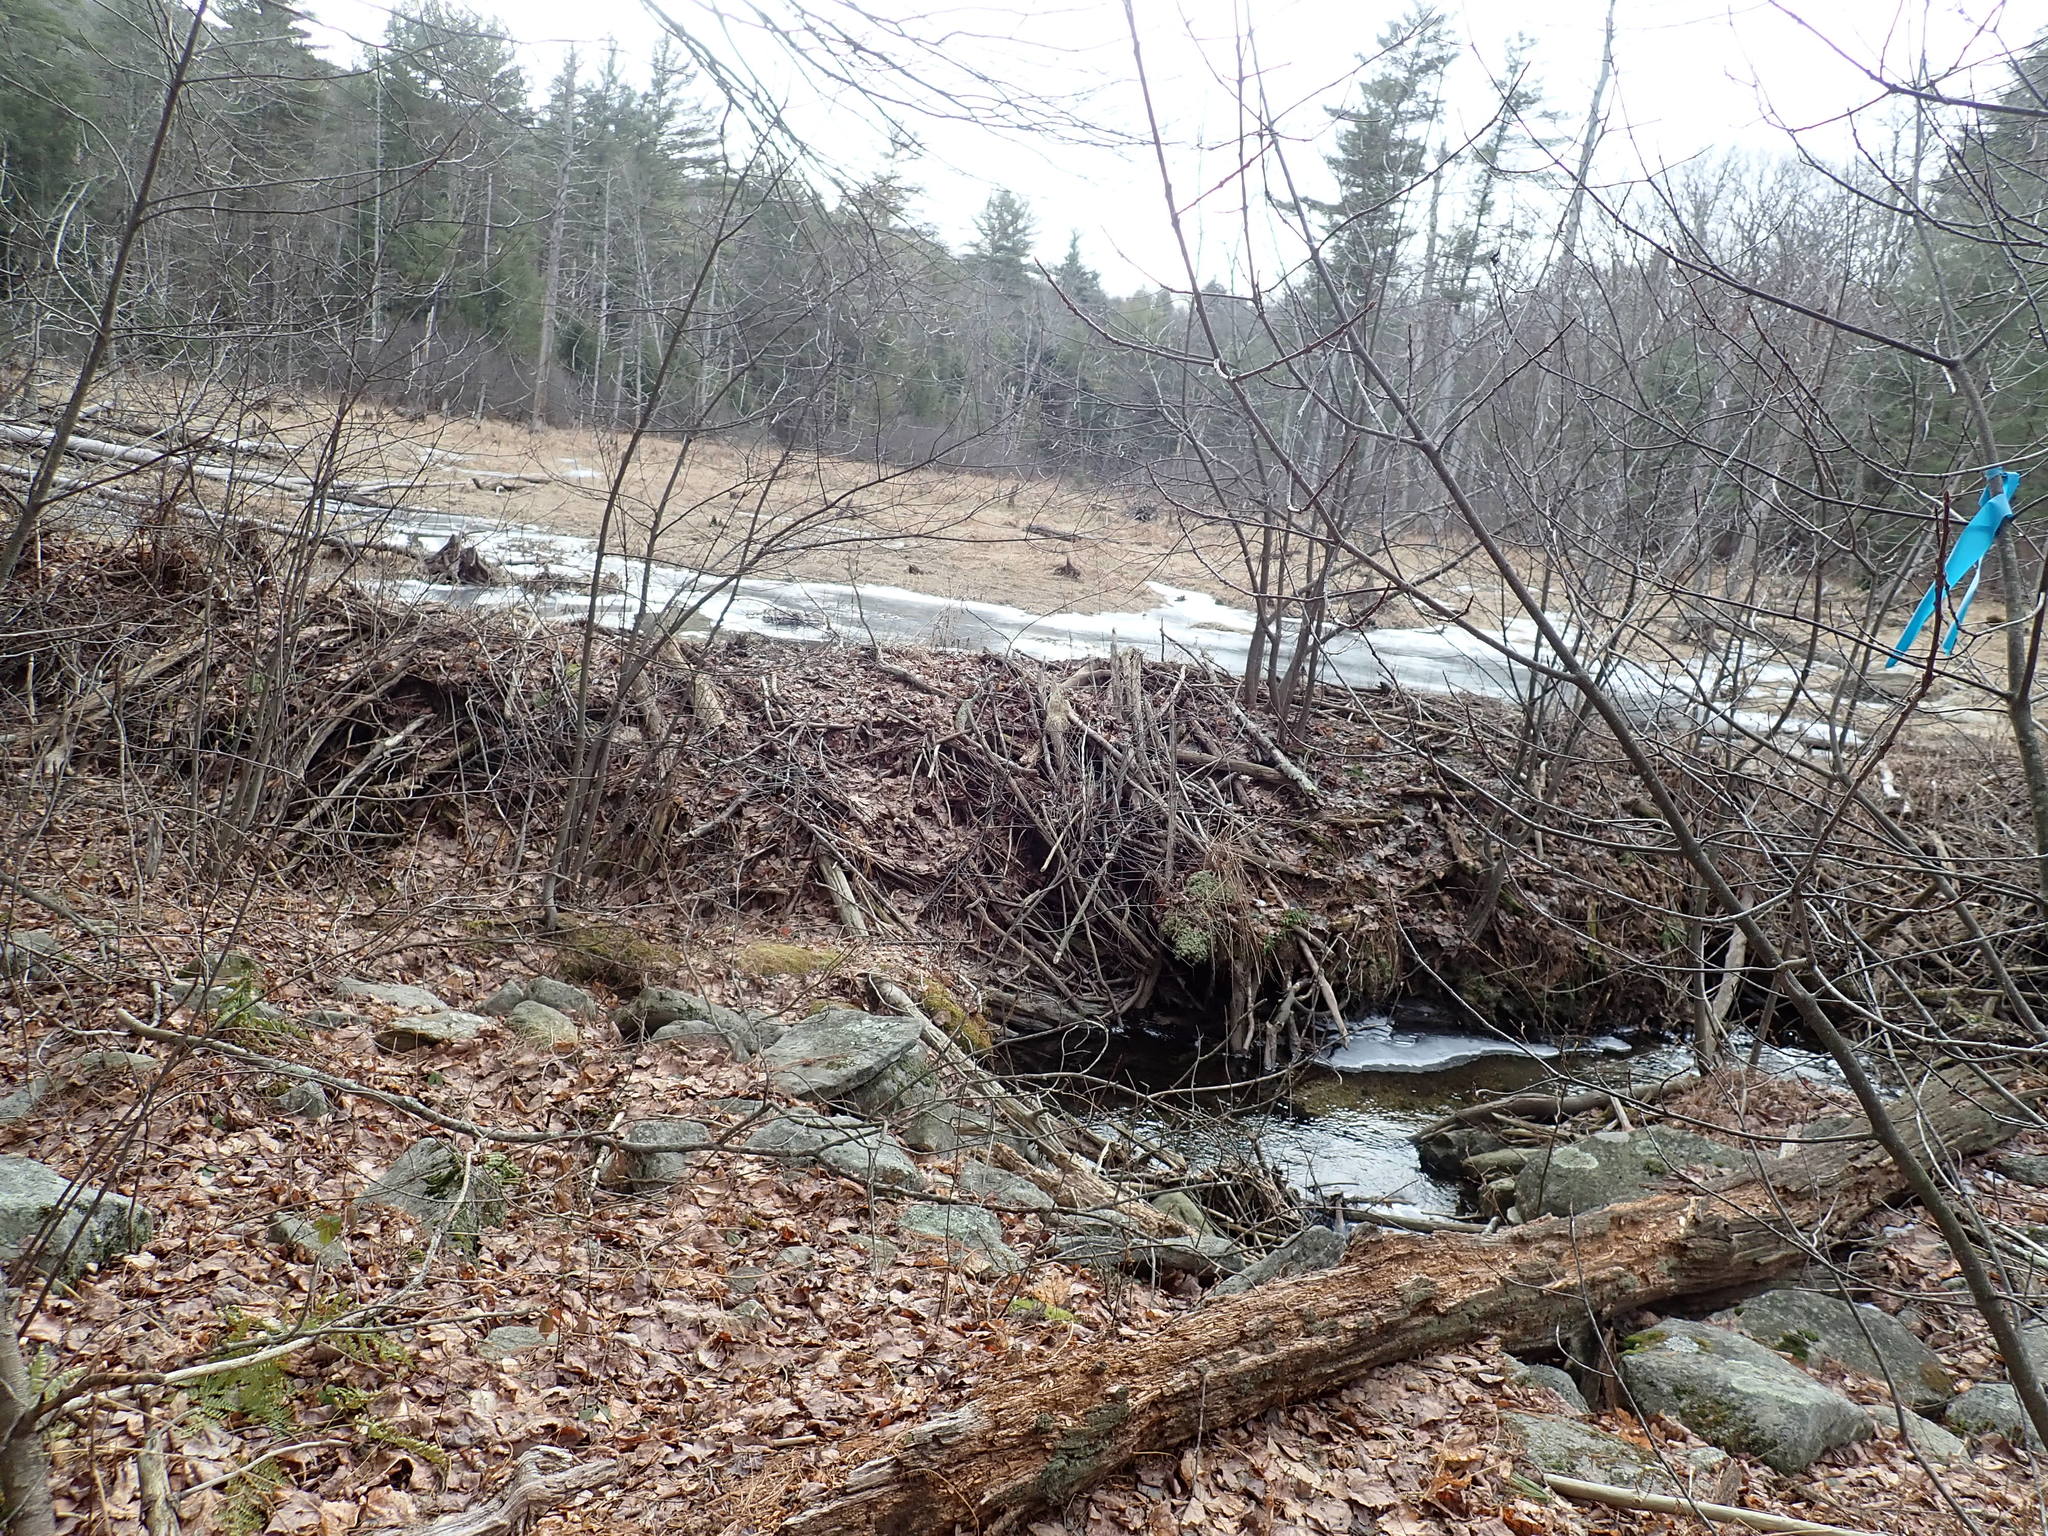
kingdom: Animalia
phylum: Chordata
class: Mammalia
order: Rodentia
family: Castoridae
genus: Castor
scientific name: Castor canadensis
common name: American beaver
